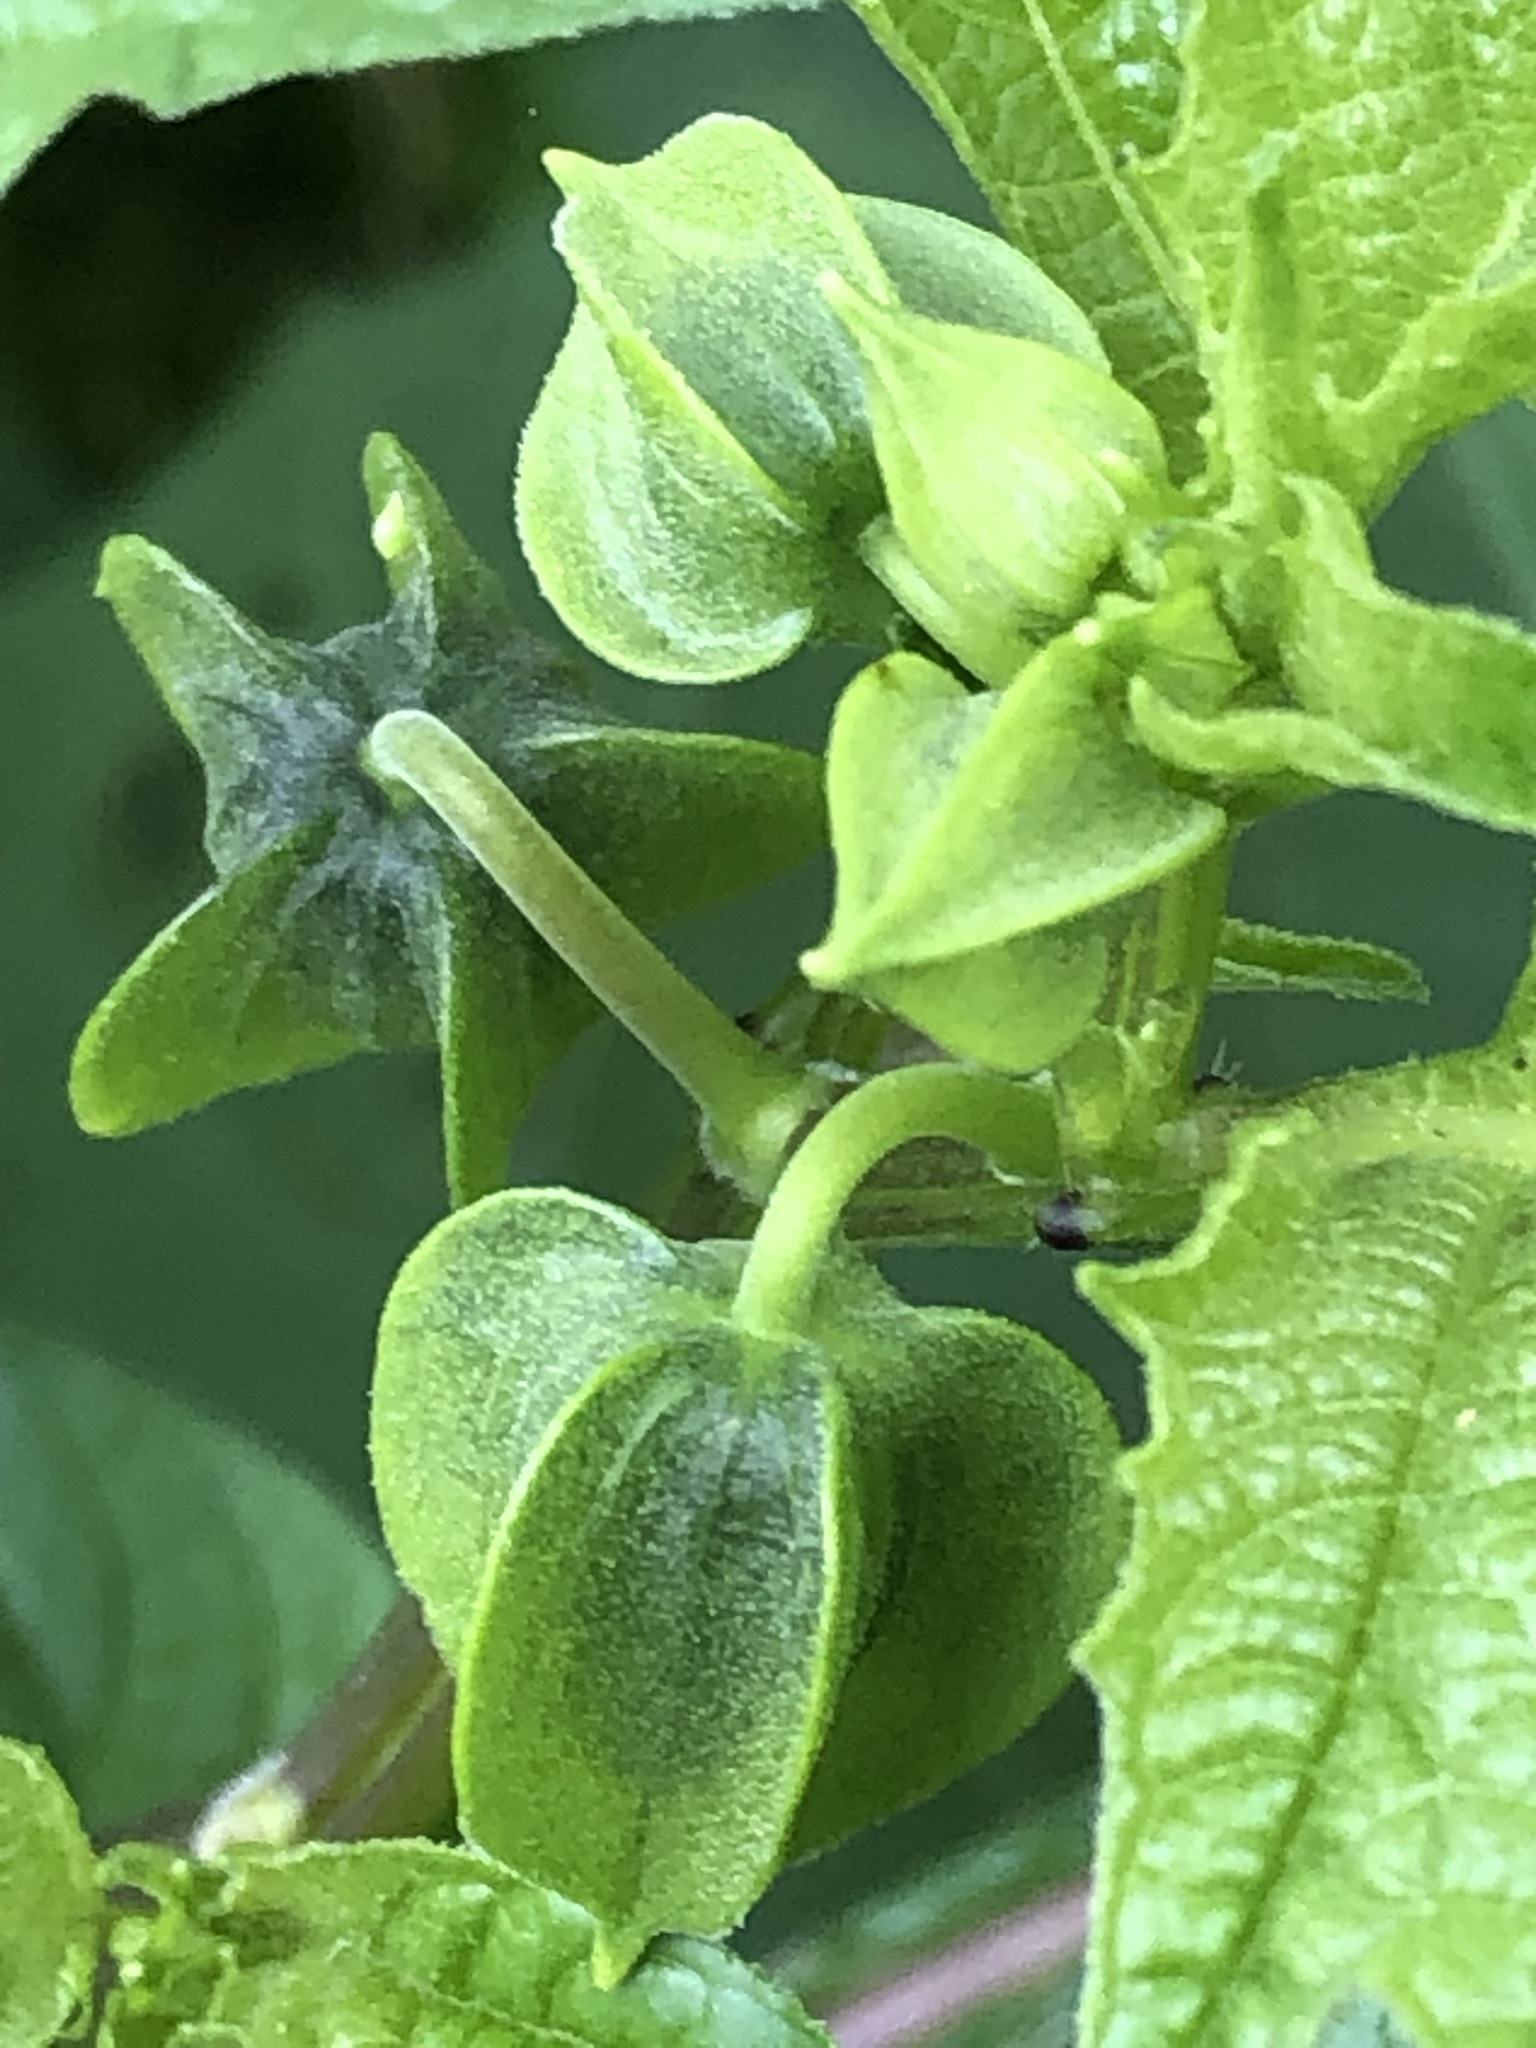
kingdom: Plantae
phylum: Tracheophyta
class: Magnoliopsida
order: Solanales
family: Solanaceae
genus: Nicandra
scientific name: Nicandra physalodes
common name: Apple-of-peru
